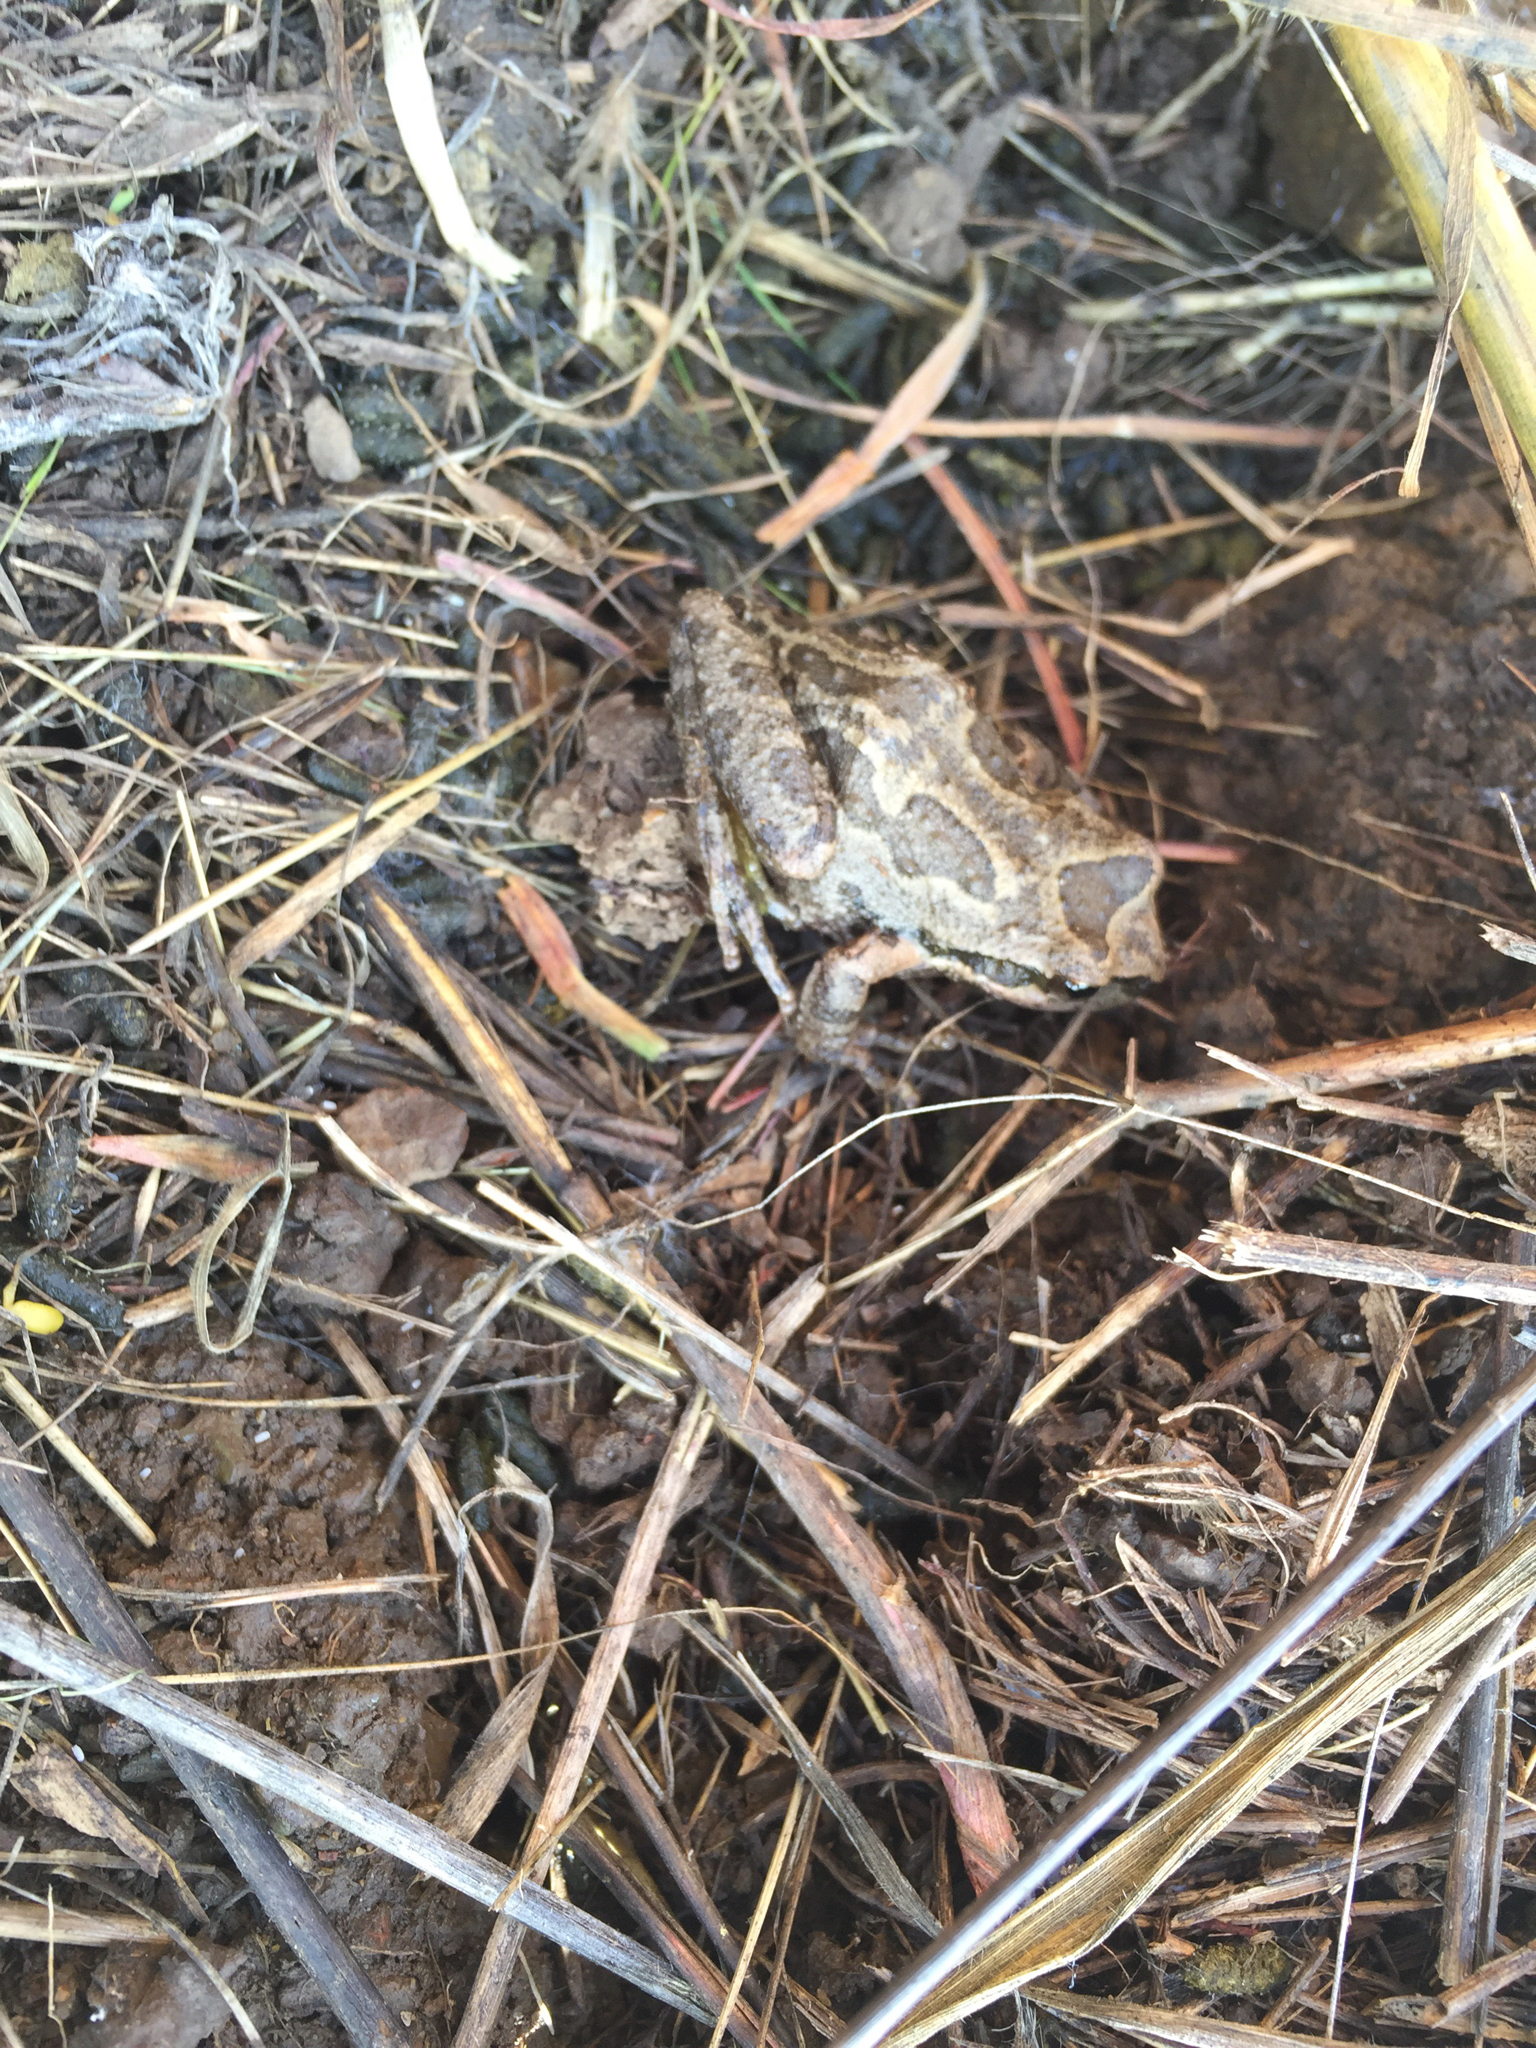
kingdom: Animalia
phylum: Chordata
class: Amphibia
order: Anura
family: Hylidae
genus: Pseudacris
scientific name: Pseudacris regilla
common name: Pacific chorus frog
